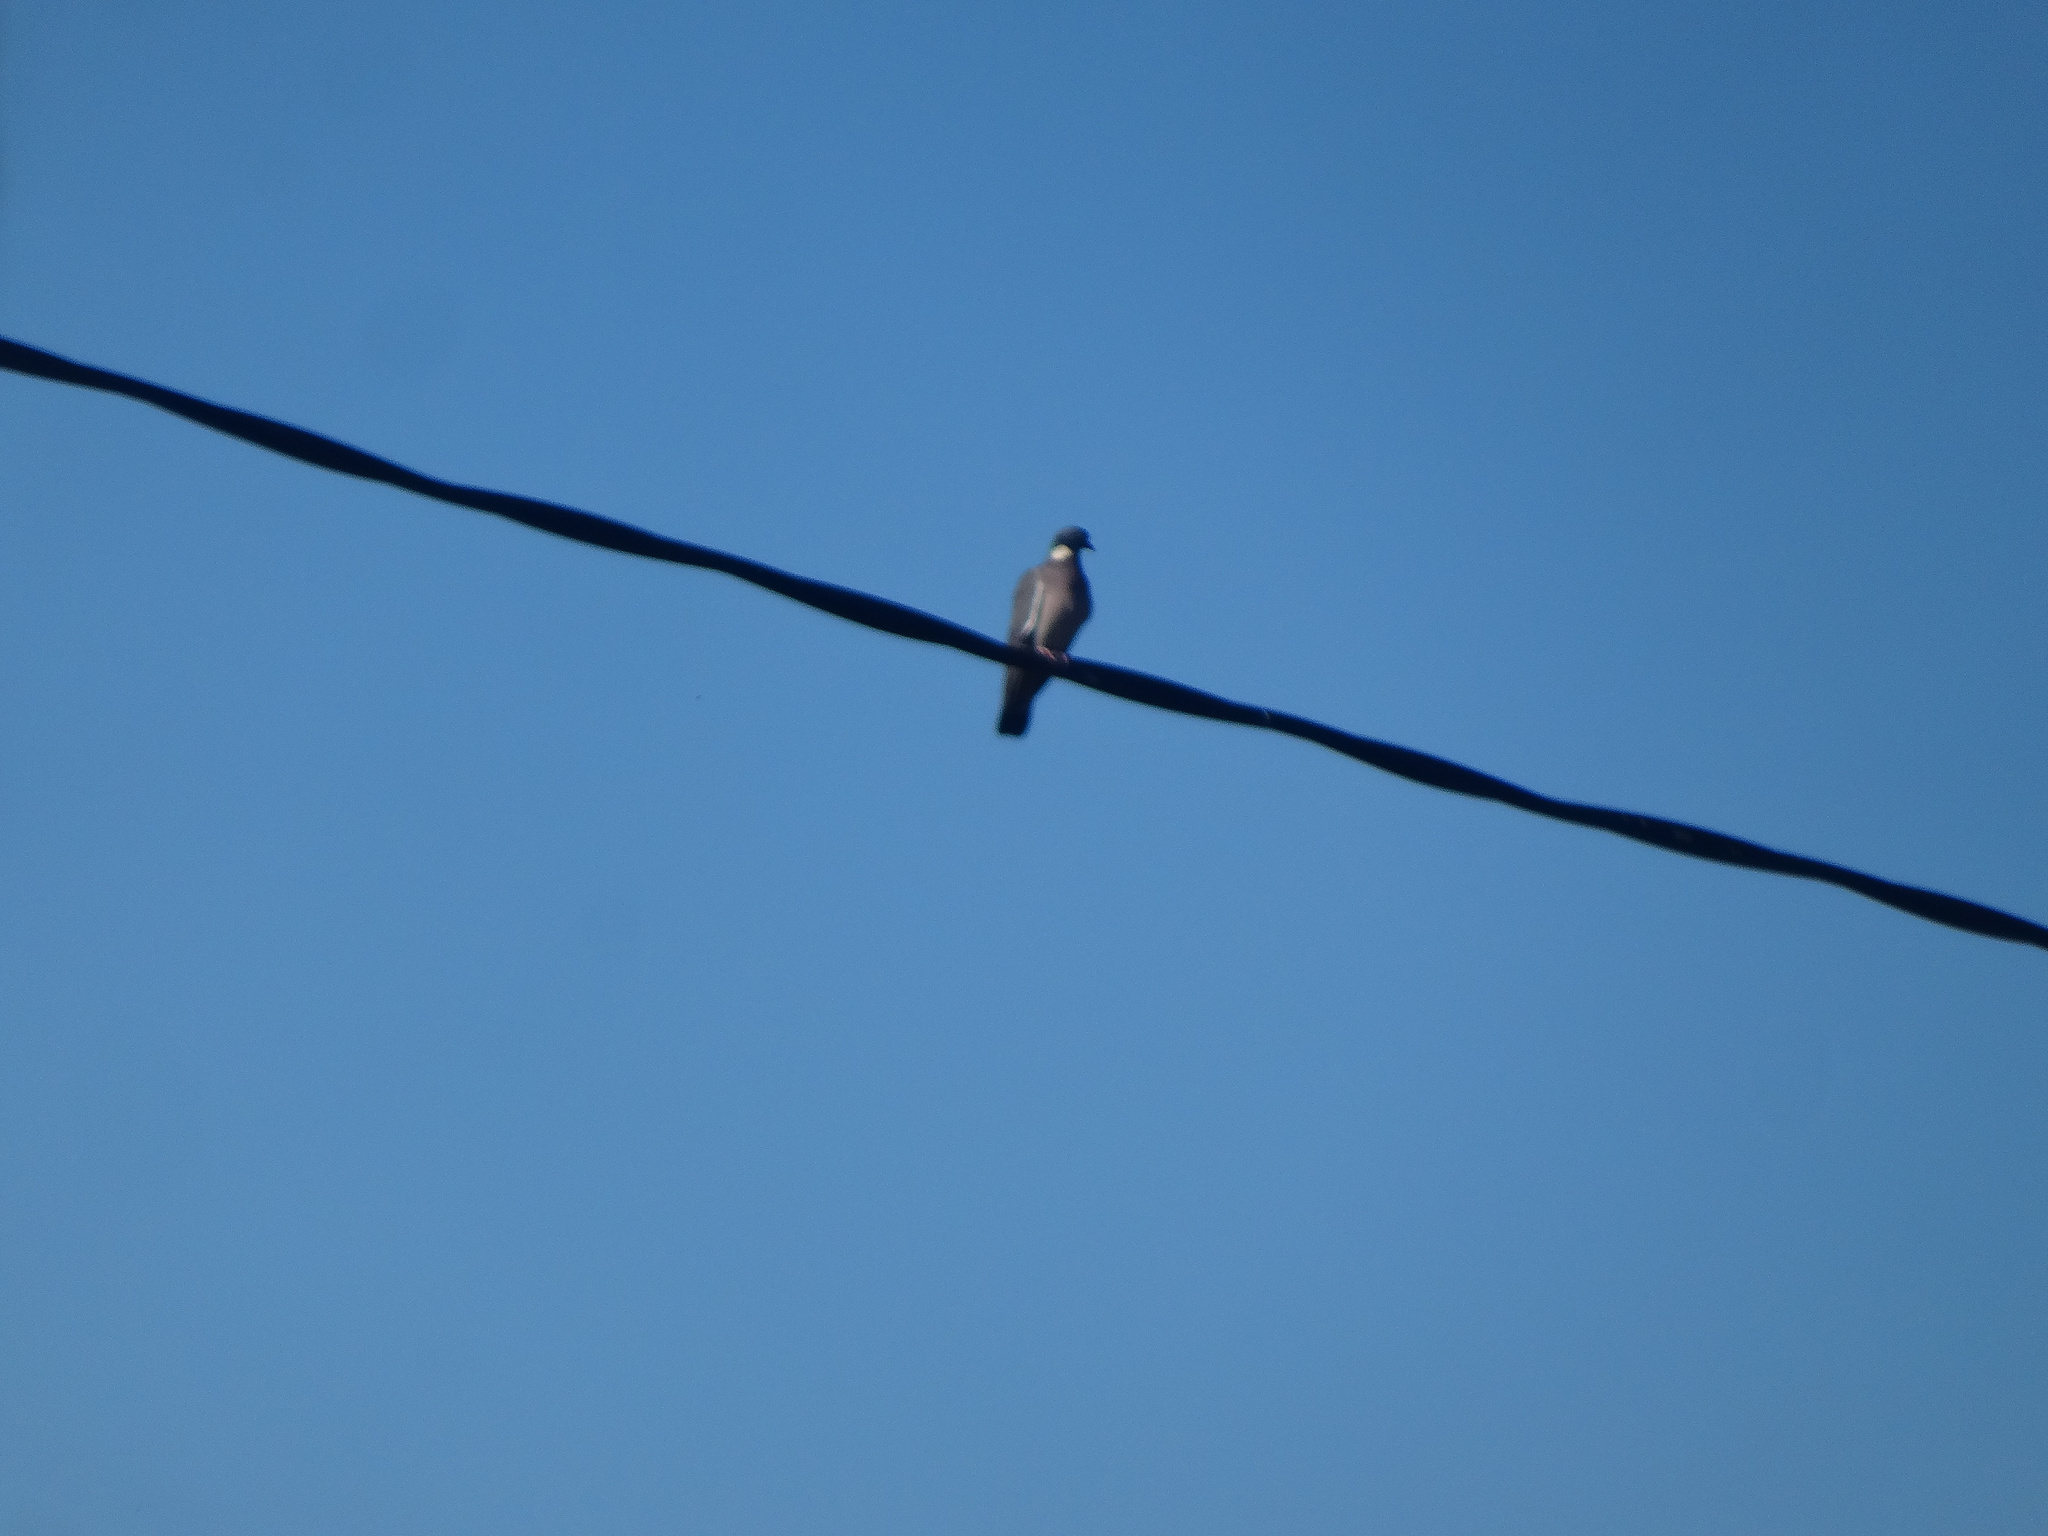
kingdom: Animalia
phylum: Chordata
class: Aves
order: Columbiformes
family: Columbidae
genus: Columba
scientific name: Columba palumbus
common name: Common wood pigeon
